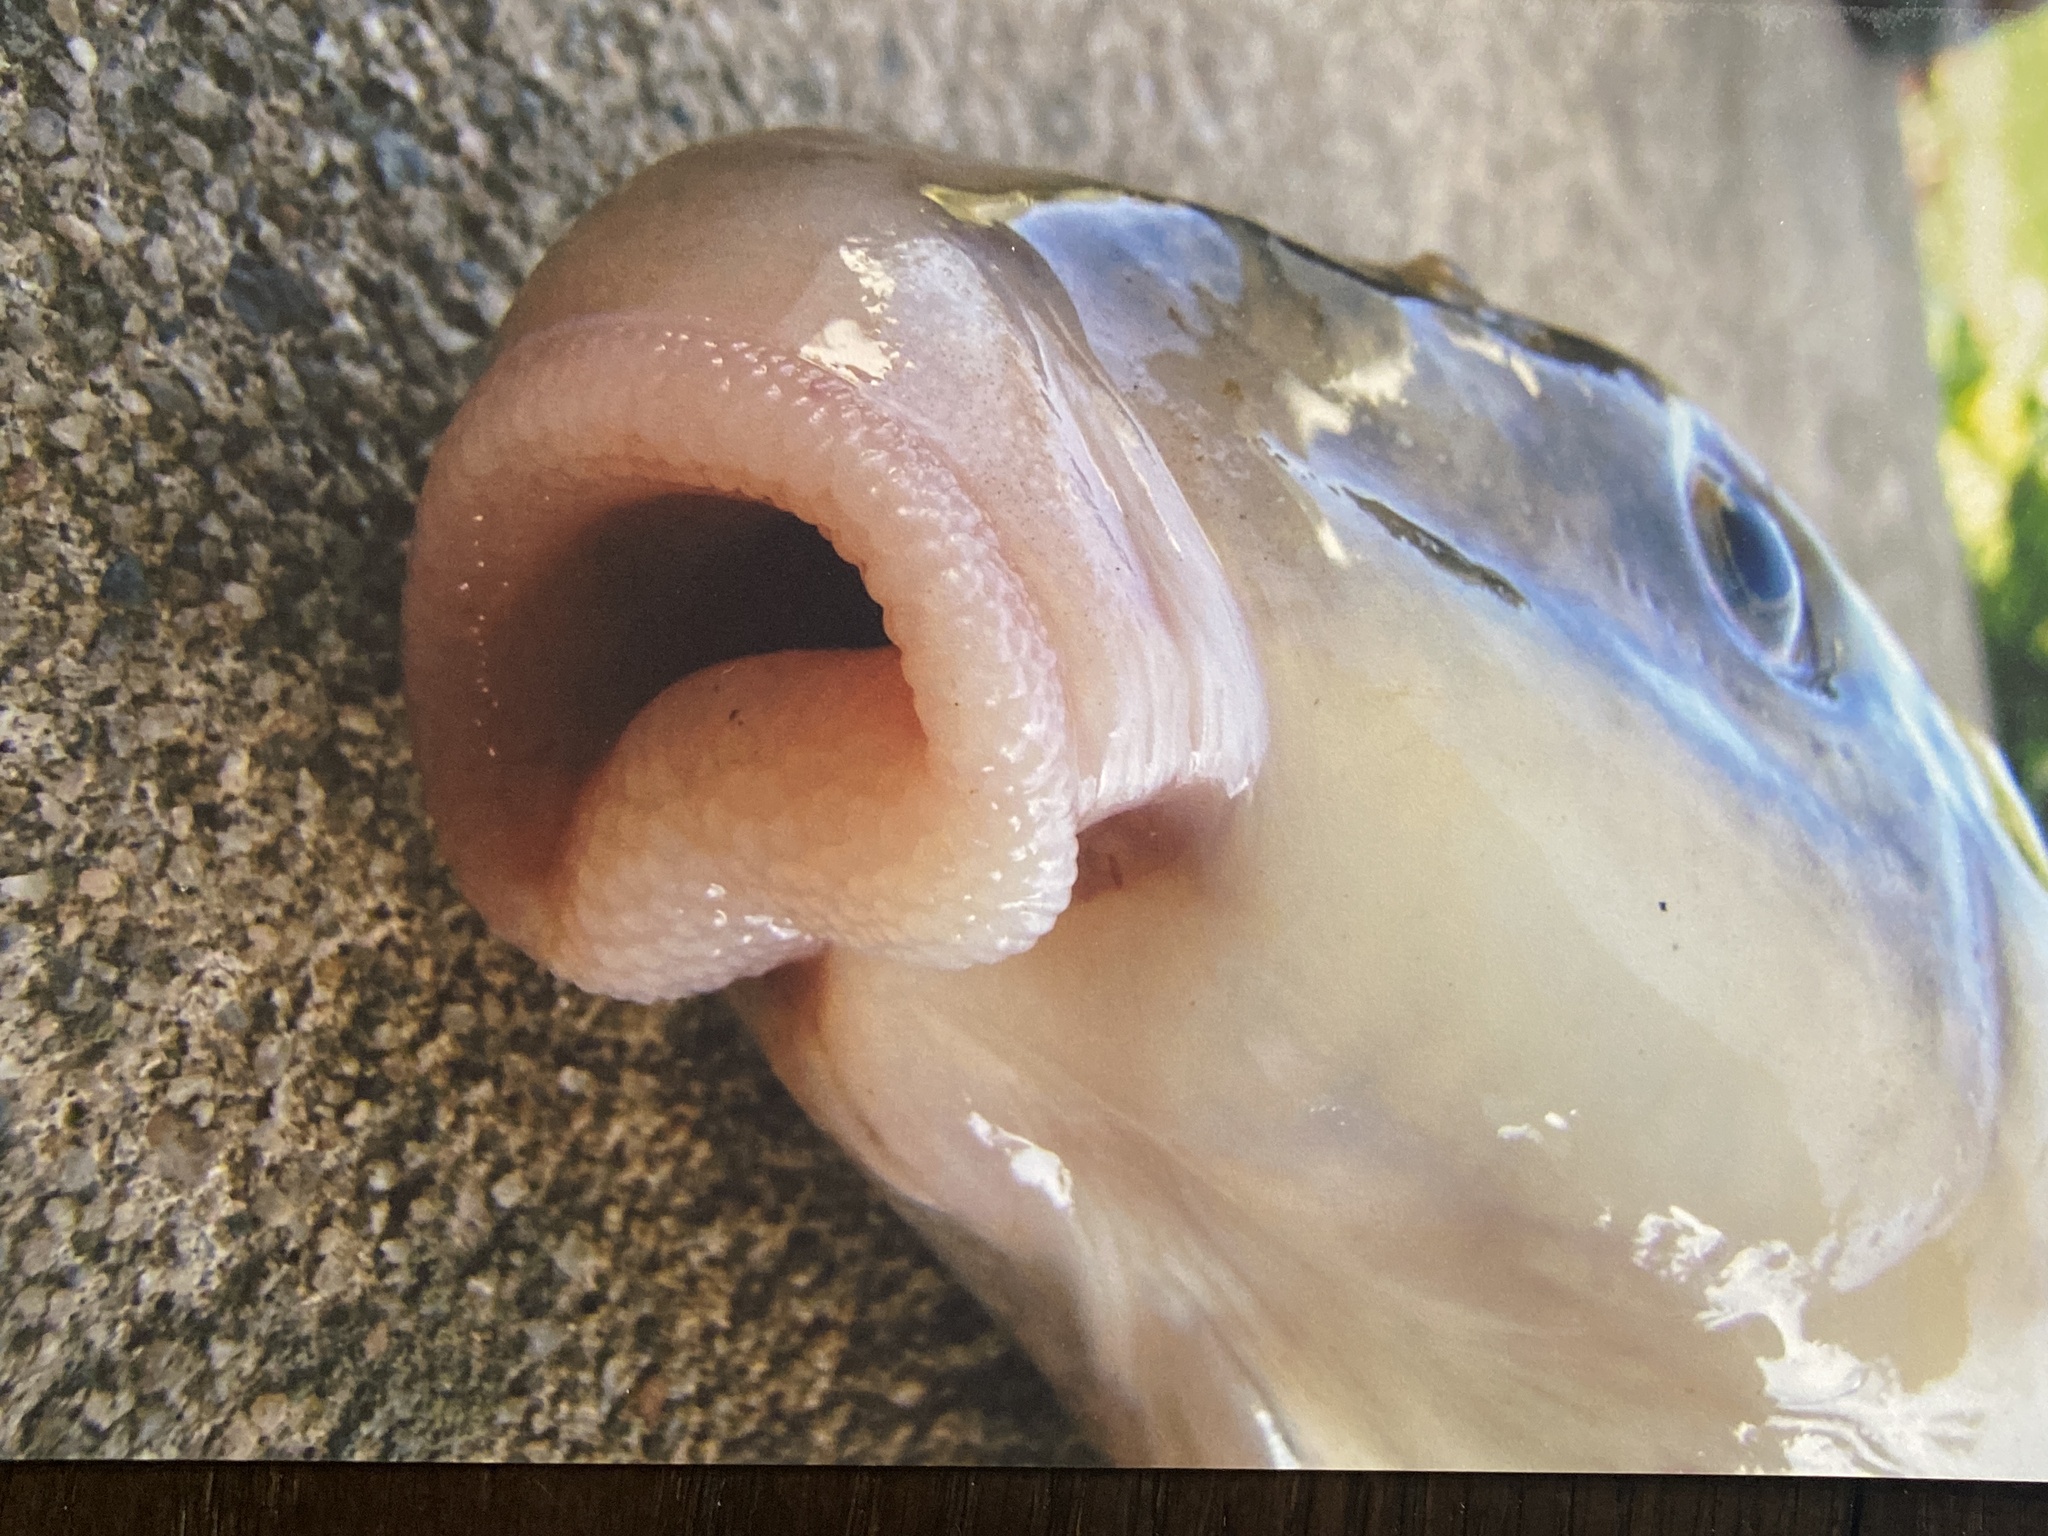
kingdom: Animalia
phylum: Chordata
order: Cypriniformes
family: Catostomidae
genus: Catostomus
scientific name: Catostomus commersonii
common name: White sucker
